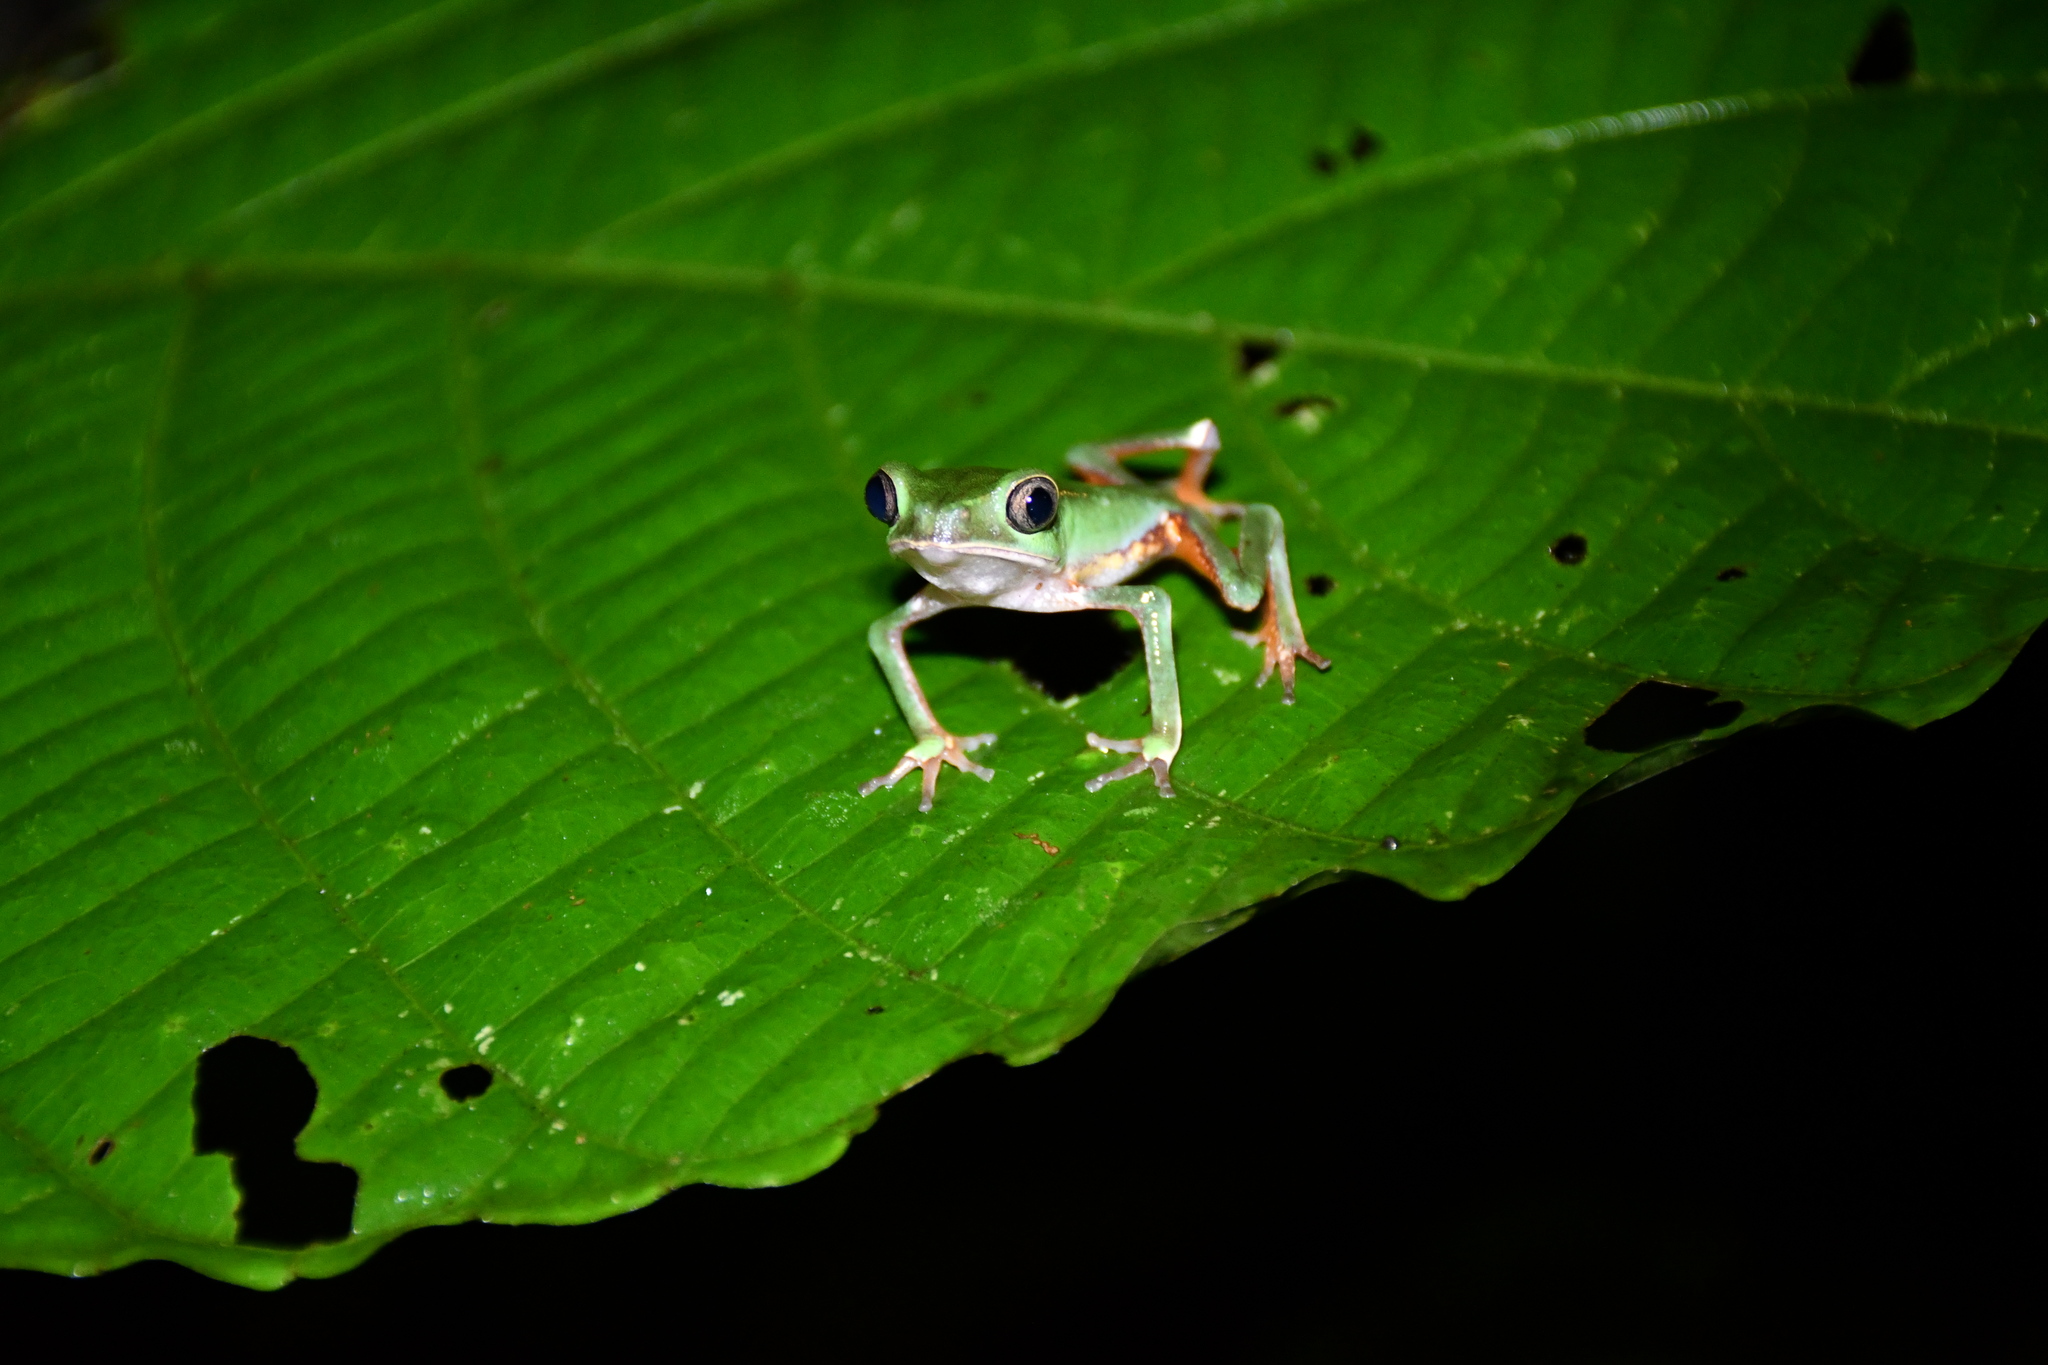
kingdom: Animalia
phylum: Chordata
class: Amphibia
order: Anura
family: Phyllomedusidae
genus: Phyllomedusa
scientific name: Phyllomedusa vaillantii
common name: White-lined leaf frog
